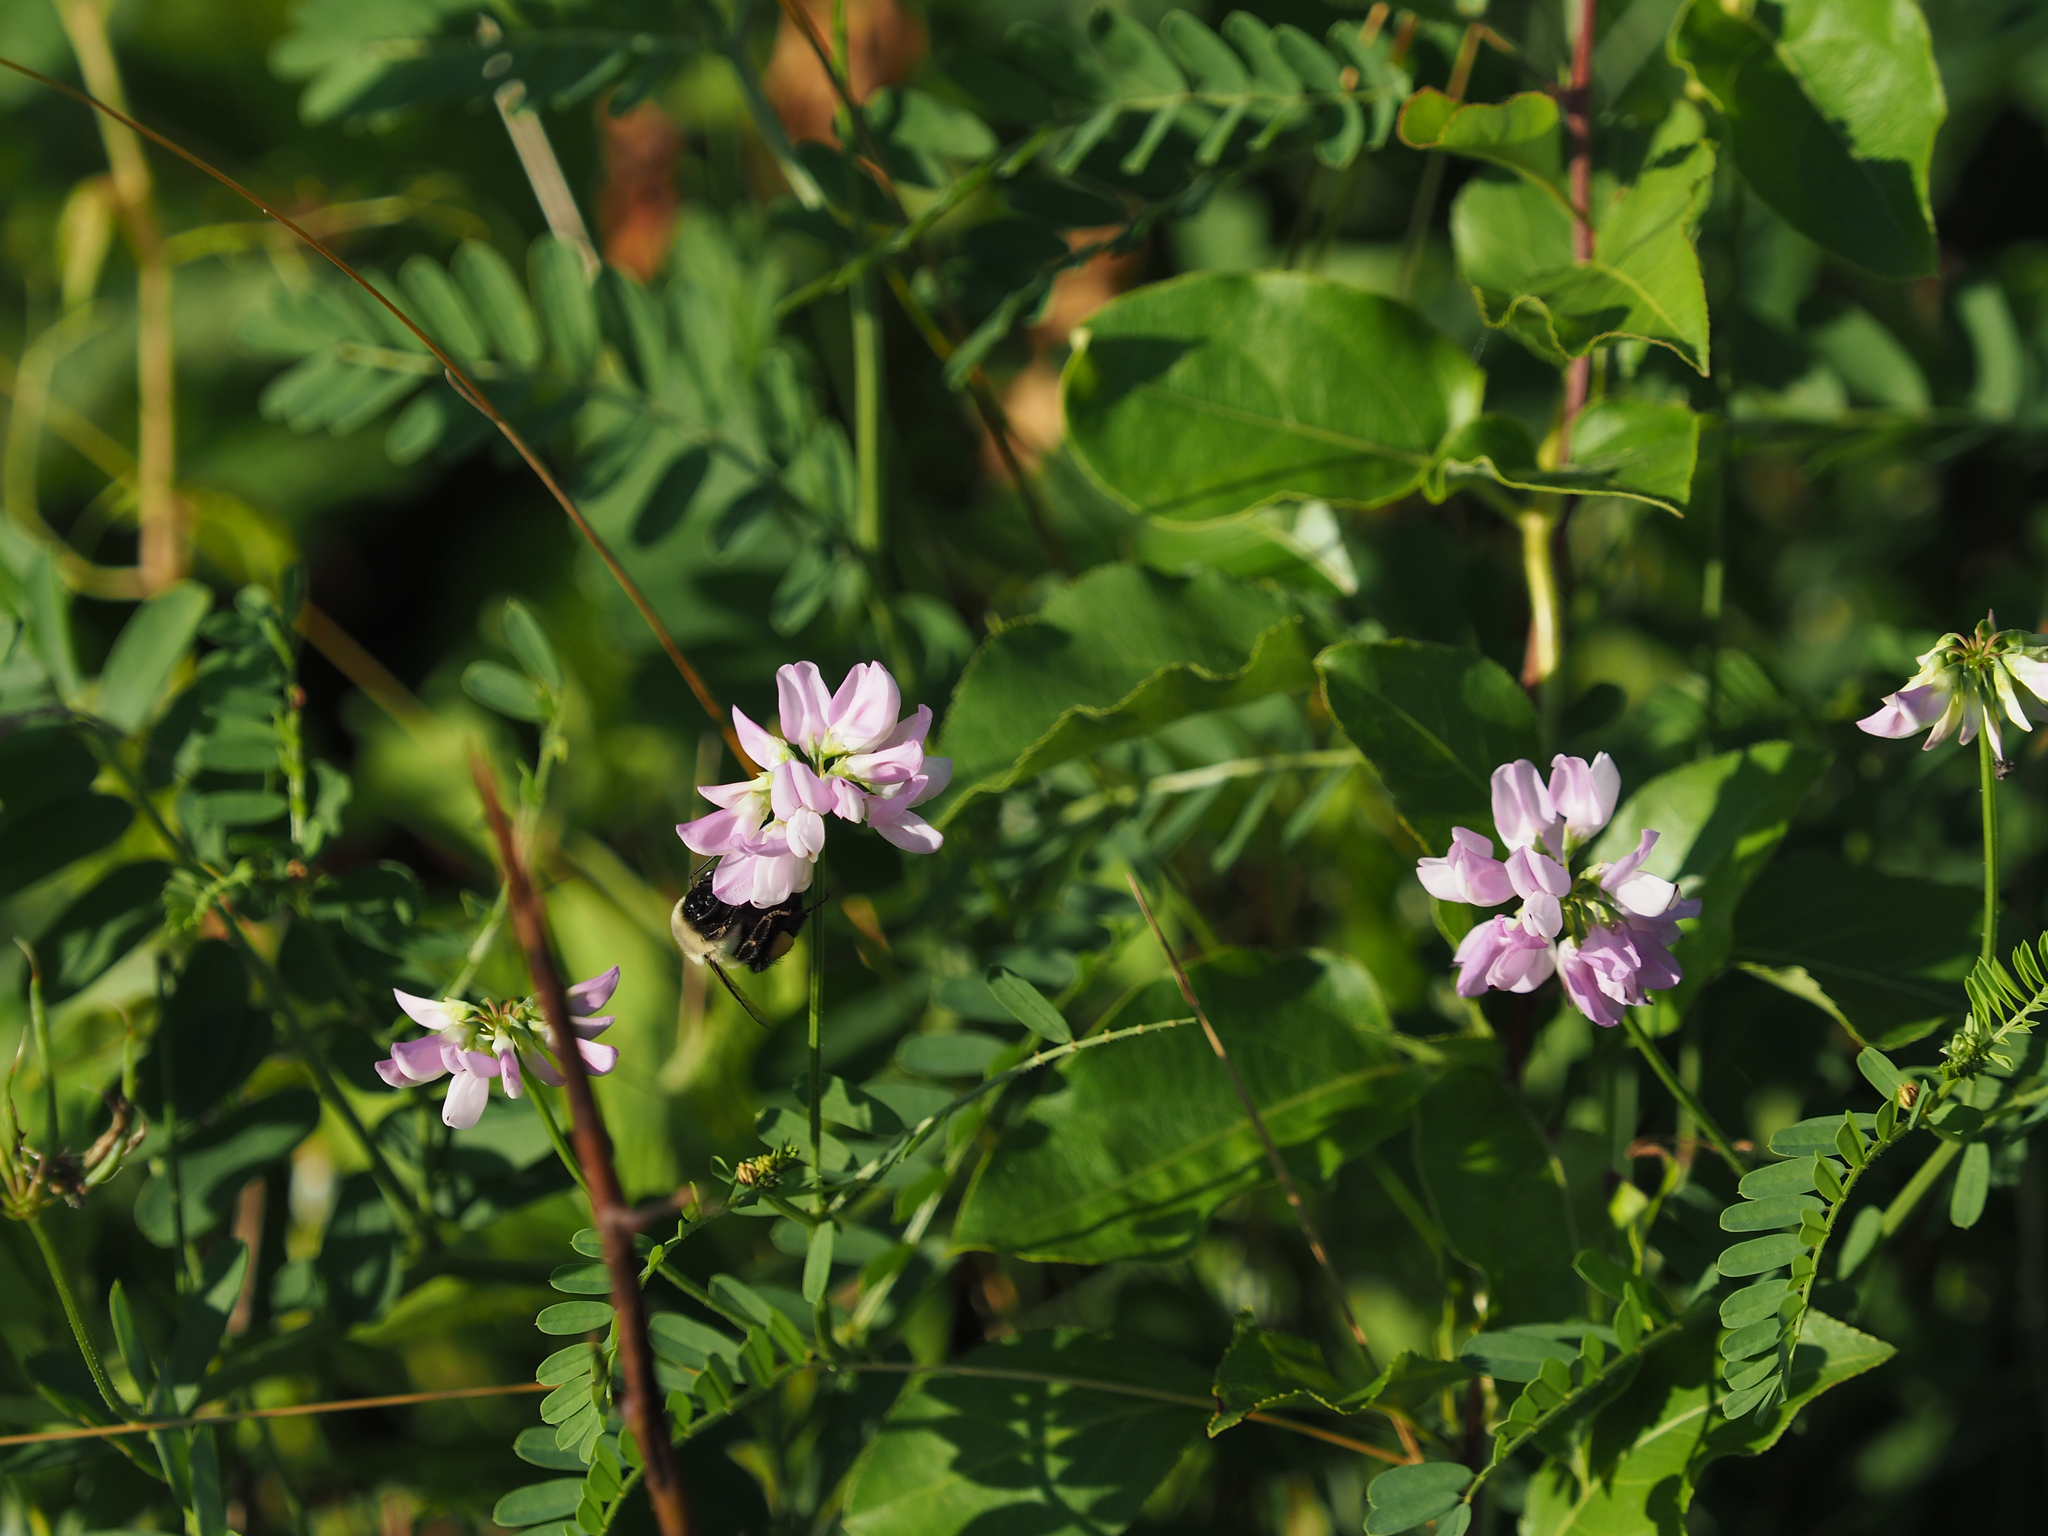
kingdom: Plantae
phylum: Tracheophyta
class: Magnoliopsida
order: Fabales
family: Fabaceae
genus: Coronilla
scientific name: Coronilla varia
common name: Crownvetch
